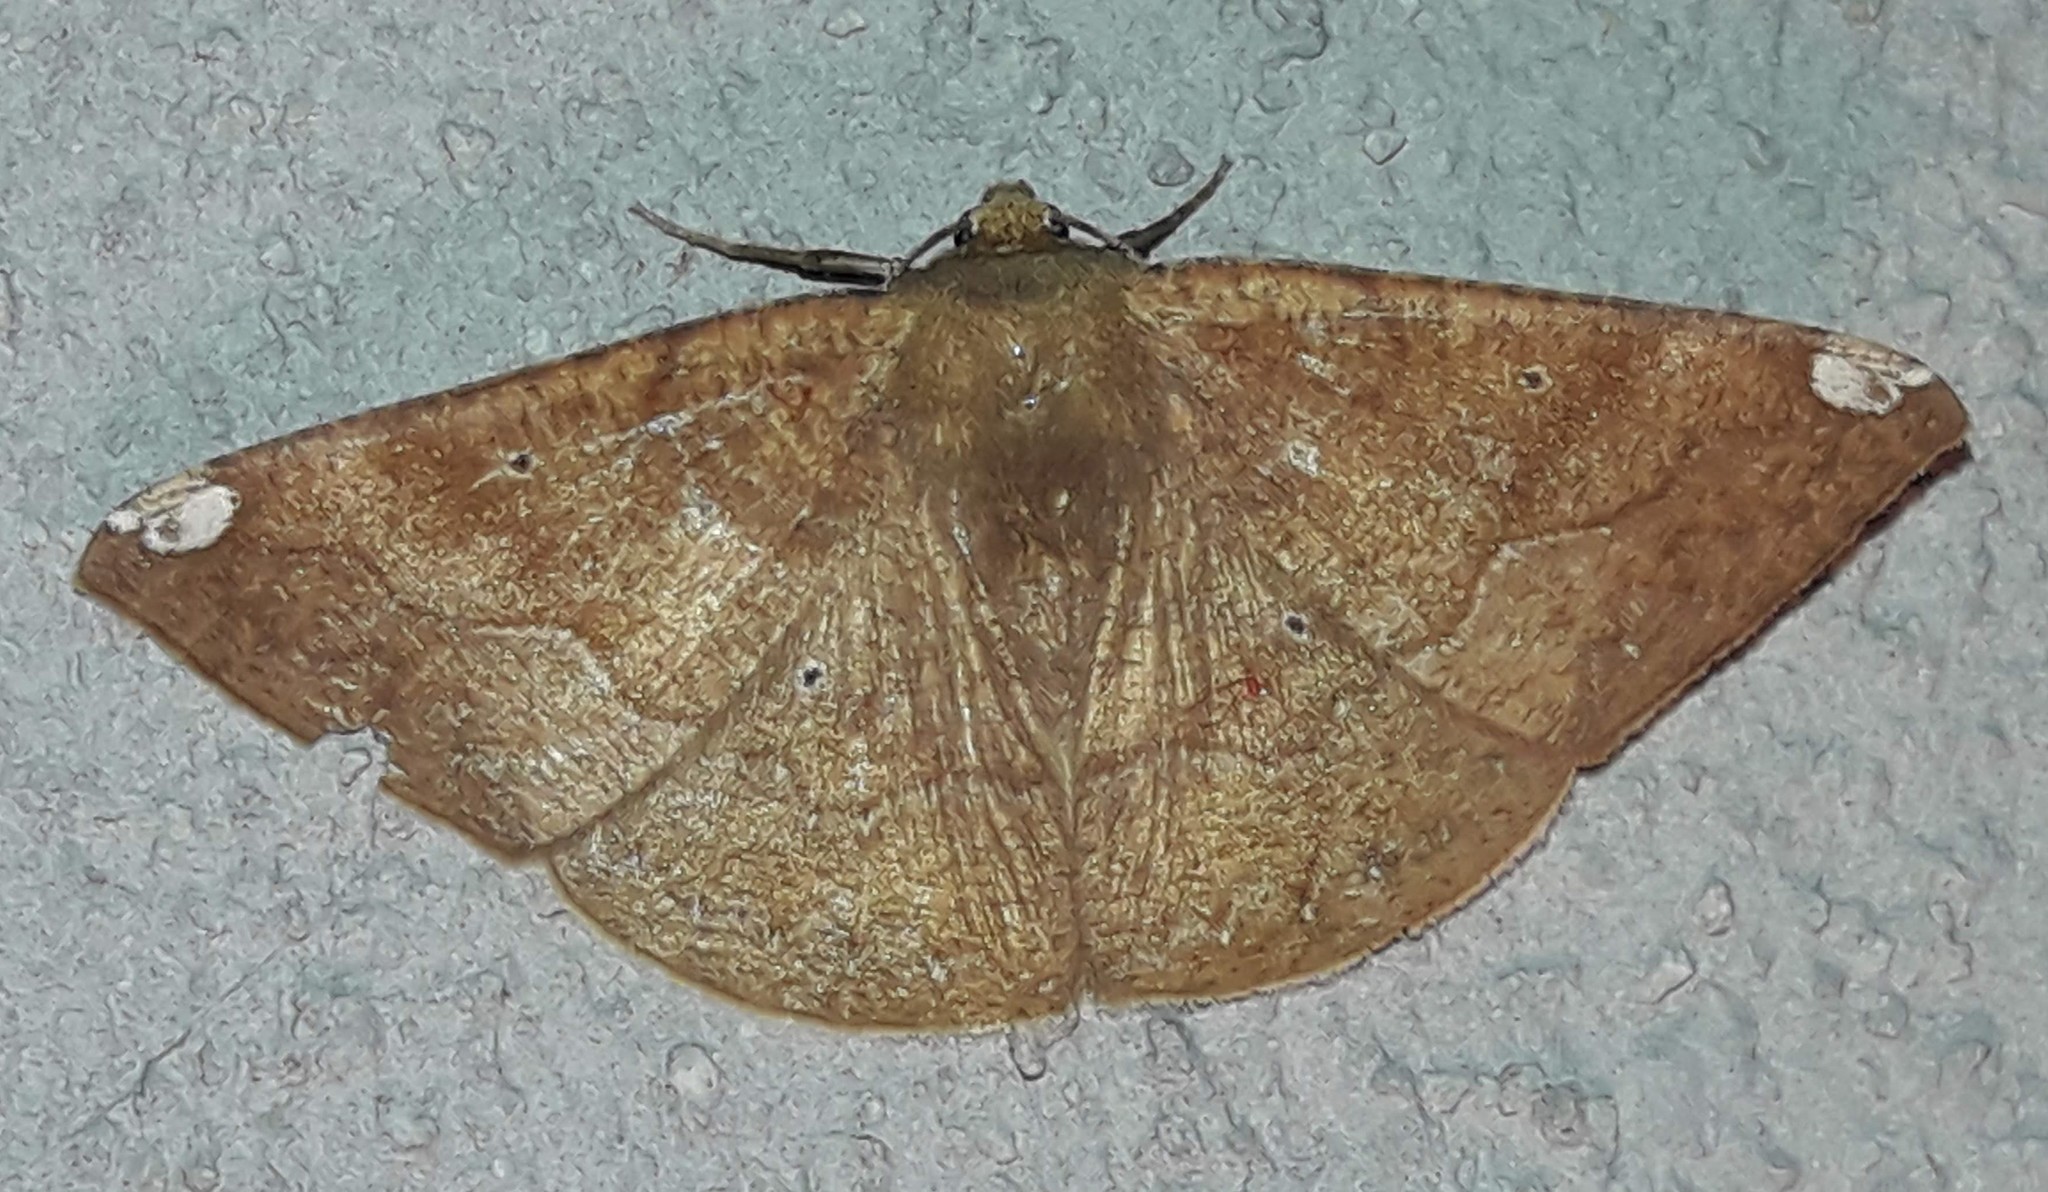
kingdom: Animalia
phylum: Arthropoda
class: Insecta
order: Lepidoptera
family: Geometridae
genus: Acrosemia
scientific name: Acrosemia molpina
